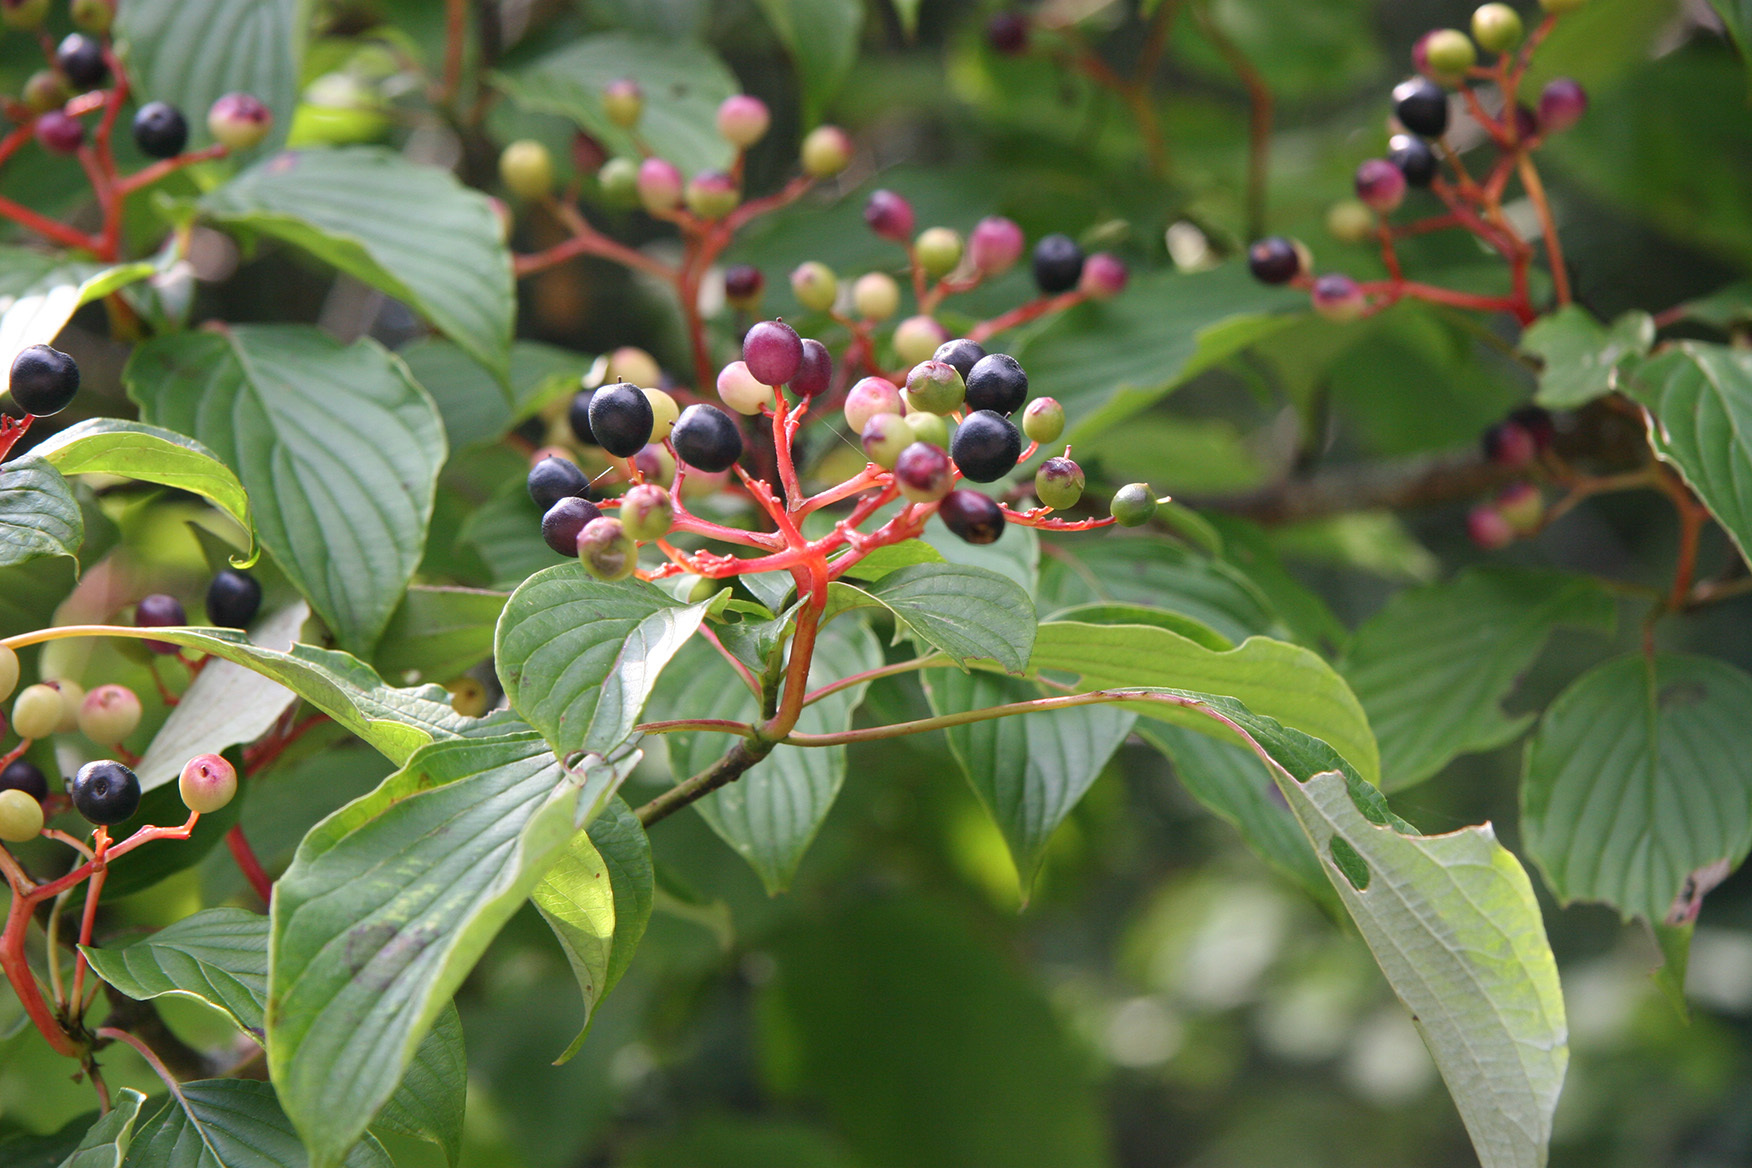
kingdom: Plantae
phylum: Tracheophyta
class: Magnoliopsida
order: Cornales
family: Cornaceae
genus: Cornus
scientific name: Cornus alternifolia
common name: Pagoda dogwood
